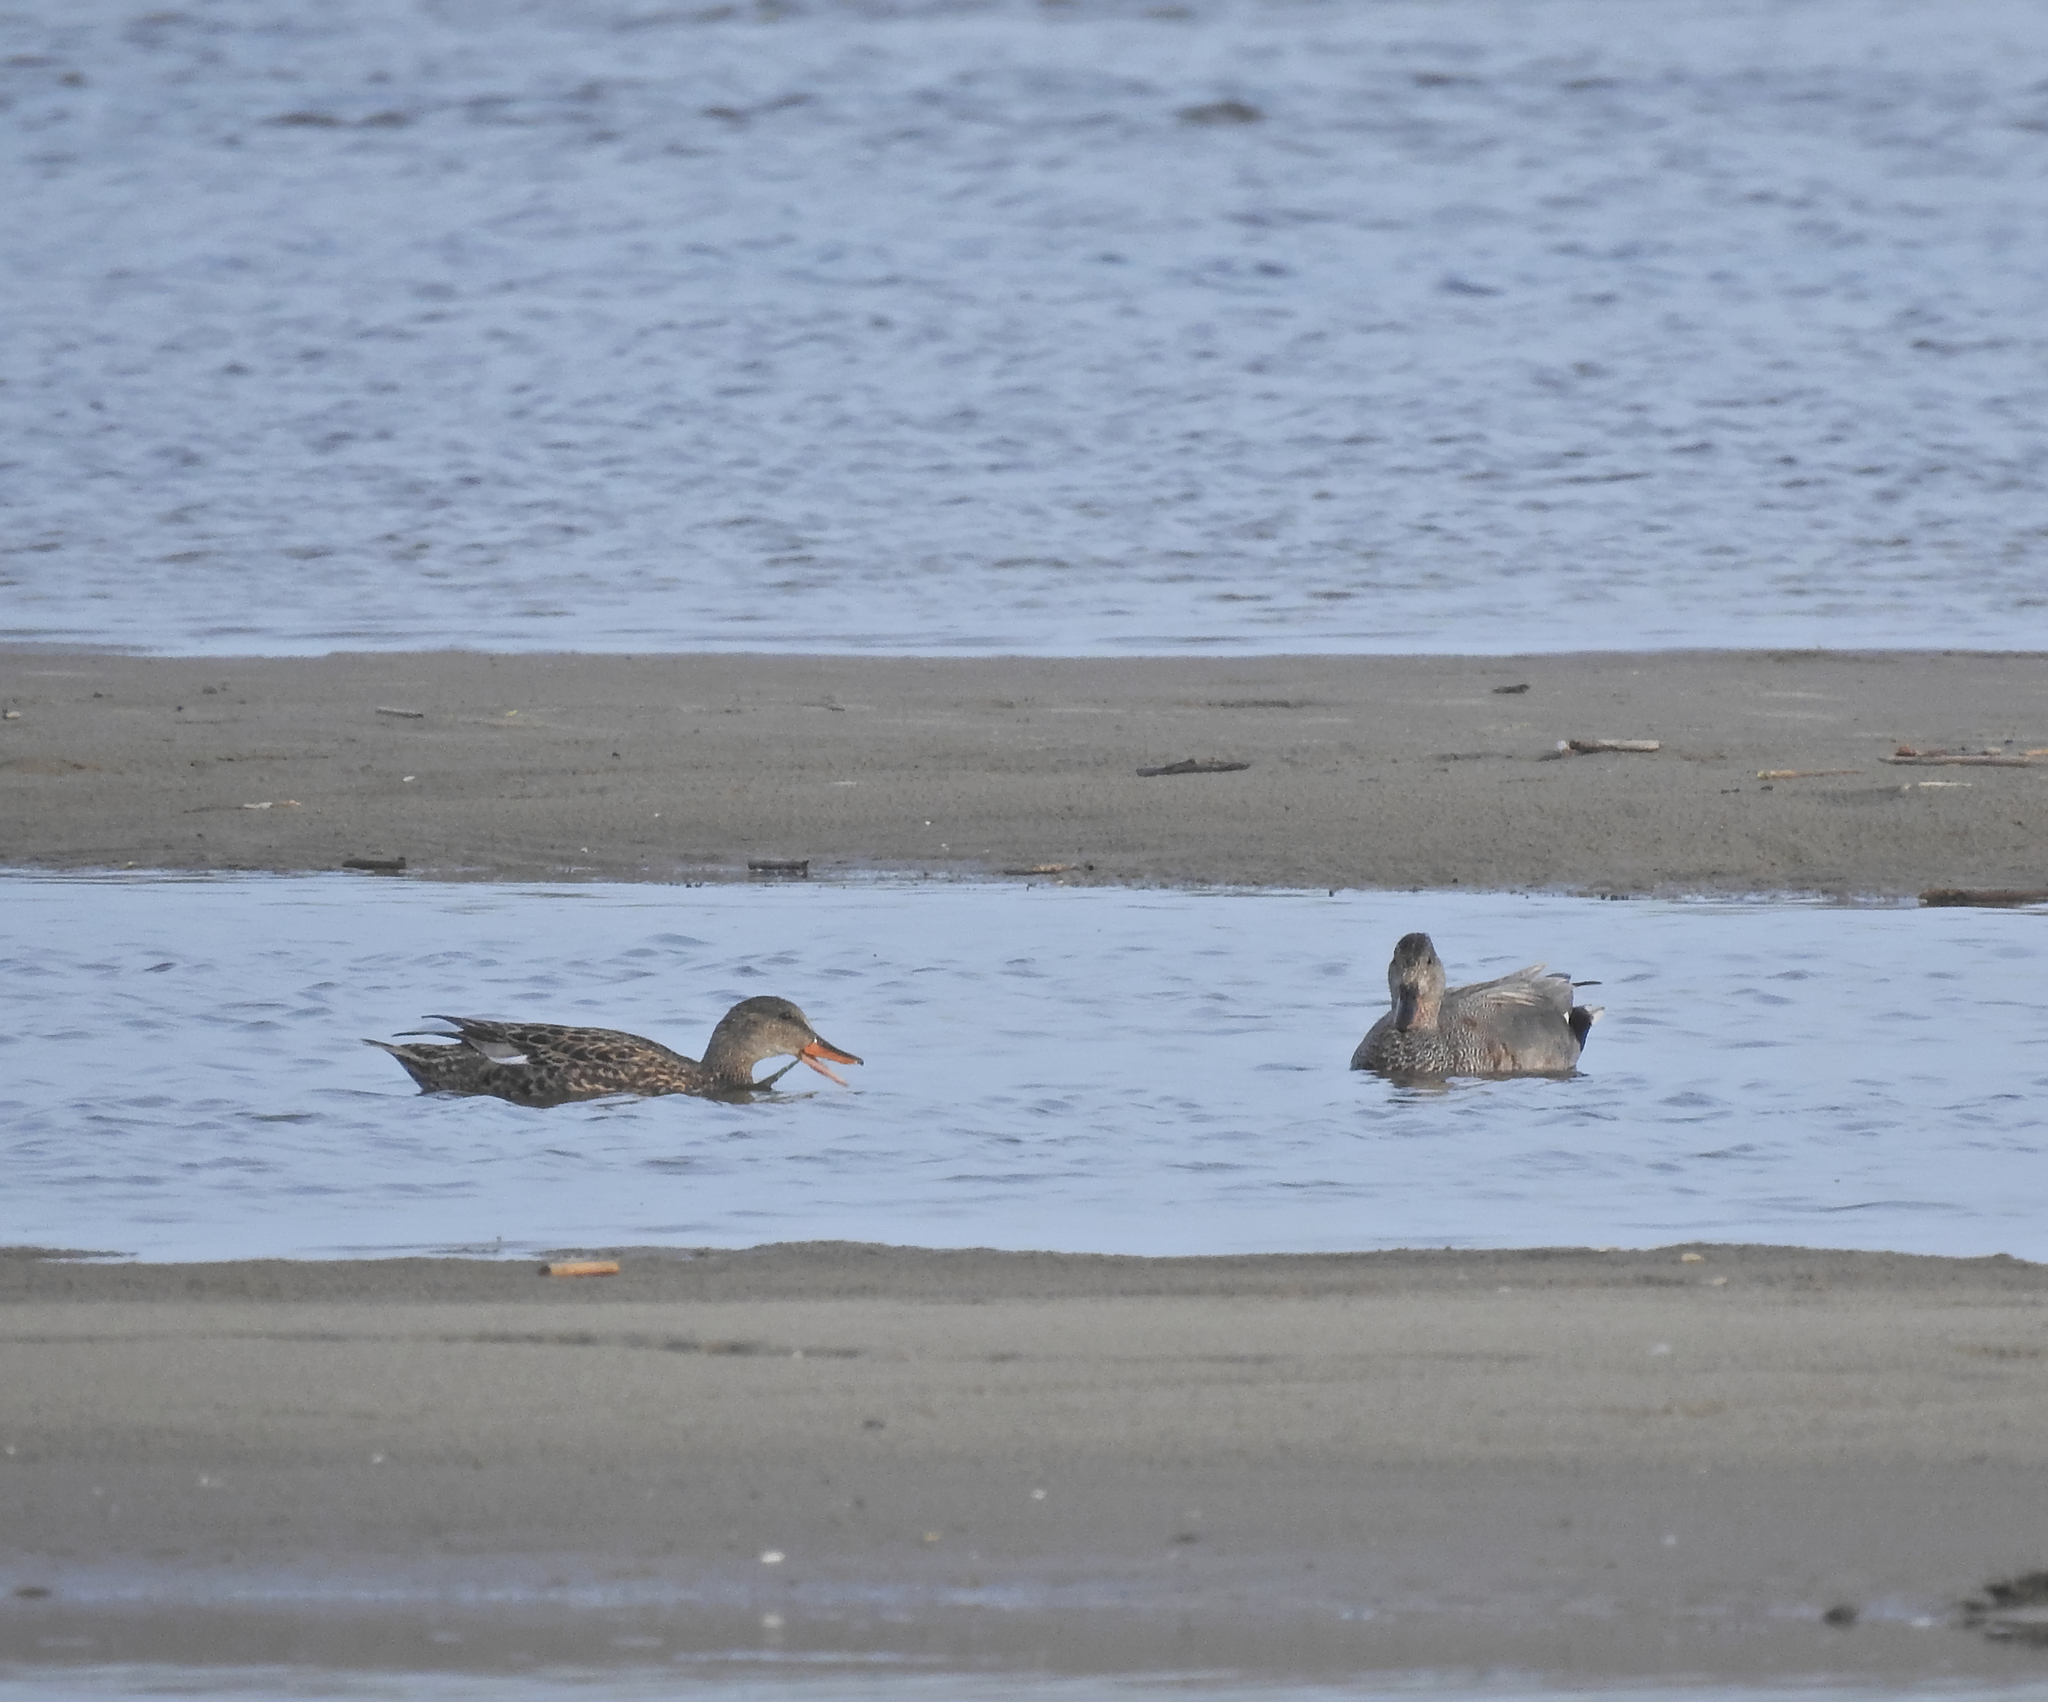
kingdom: Animalia
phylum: Chordata
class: Aves
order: Anseriformes
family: Anatidae
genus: Mareca
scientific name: Mareca strepera
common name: Gadwall
